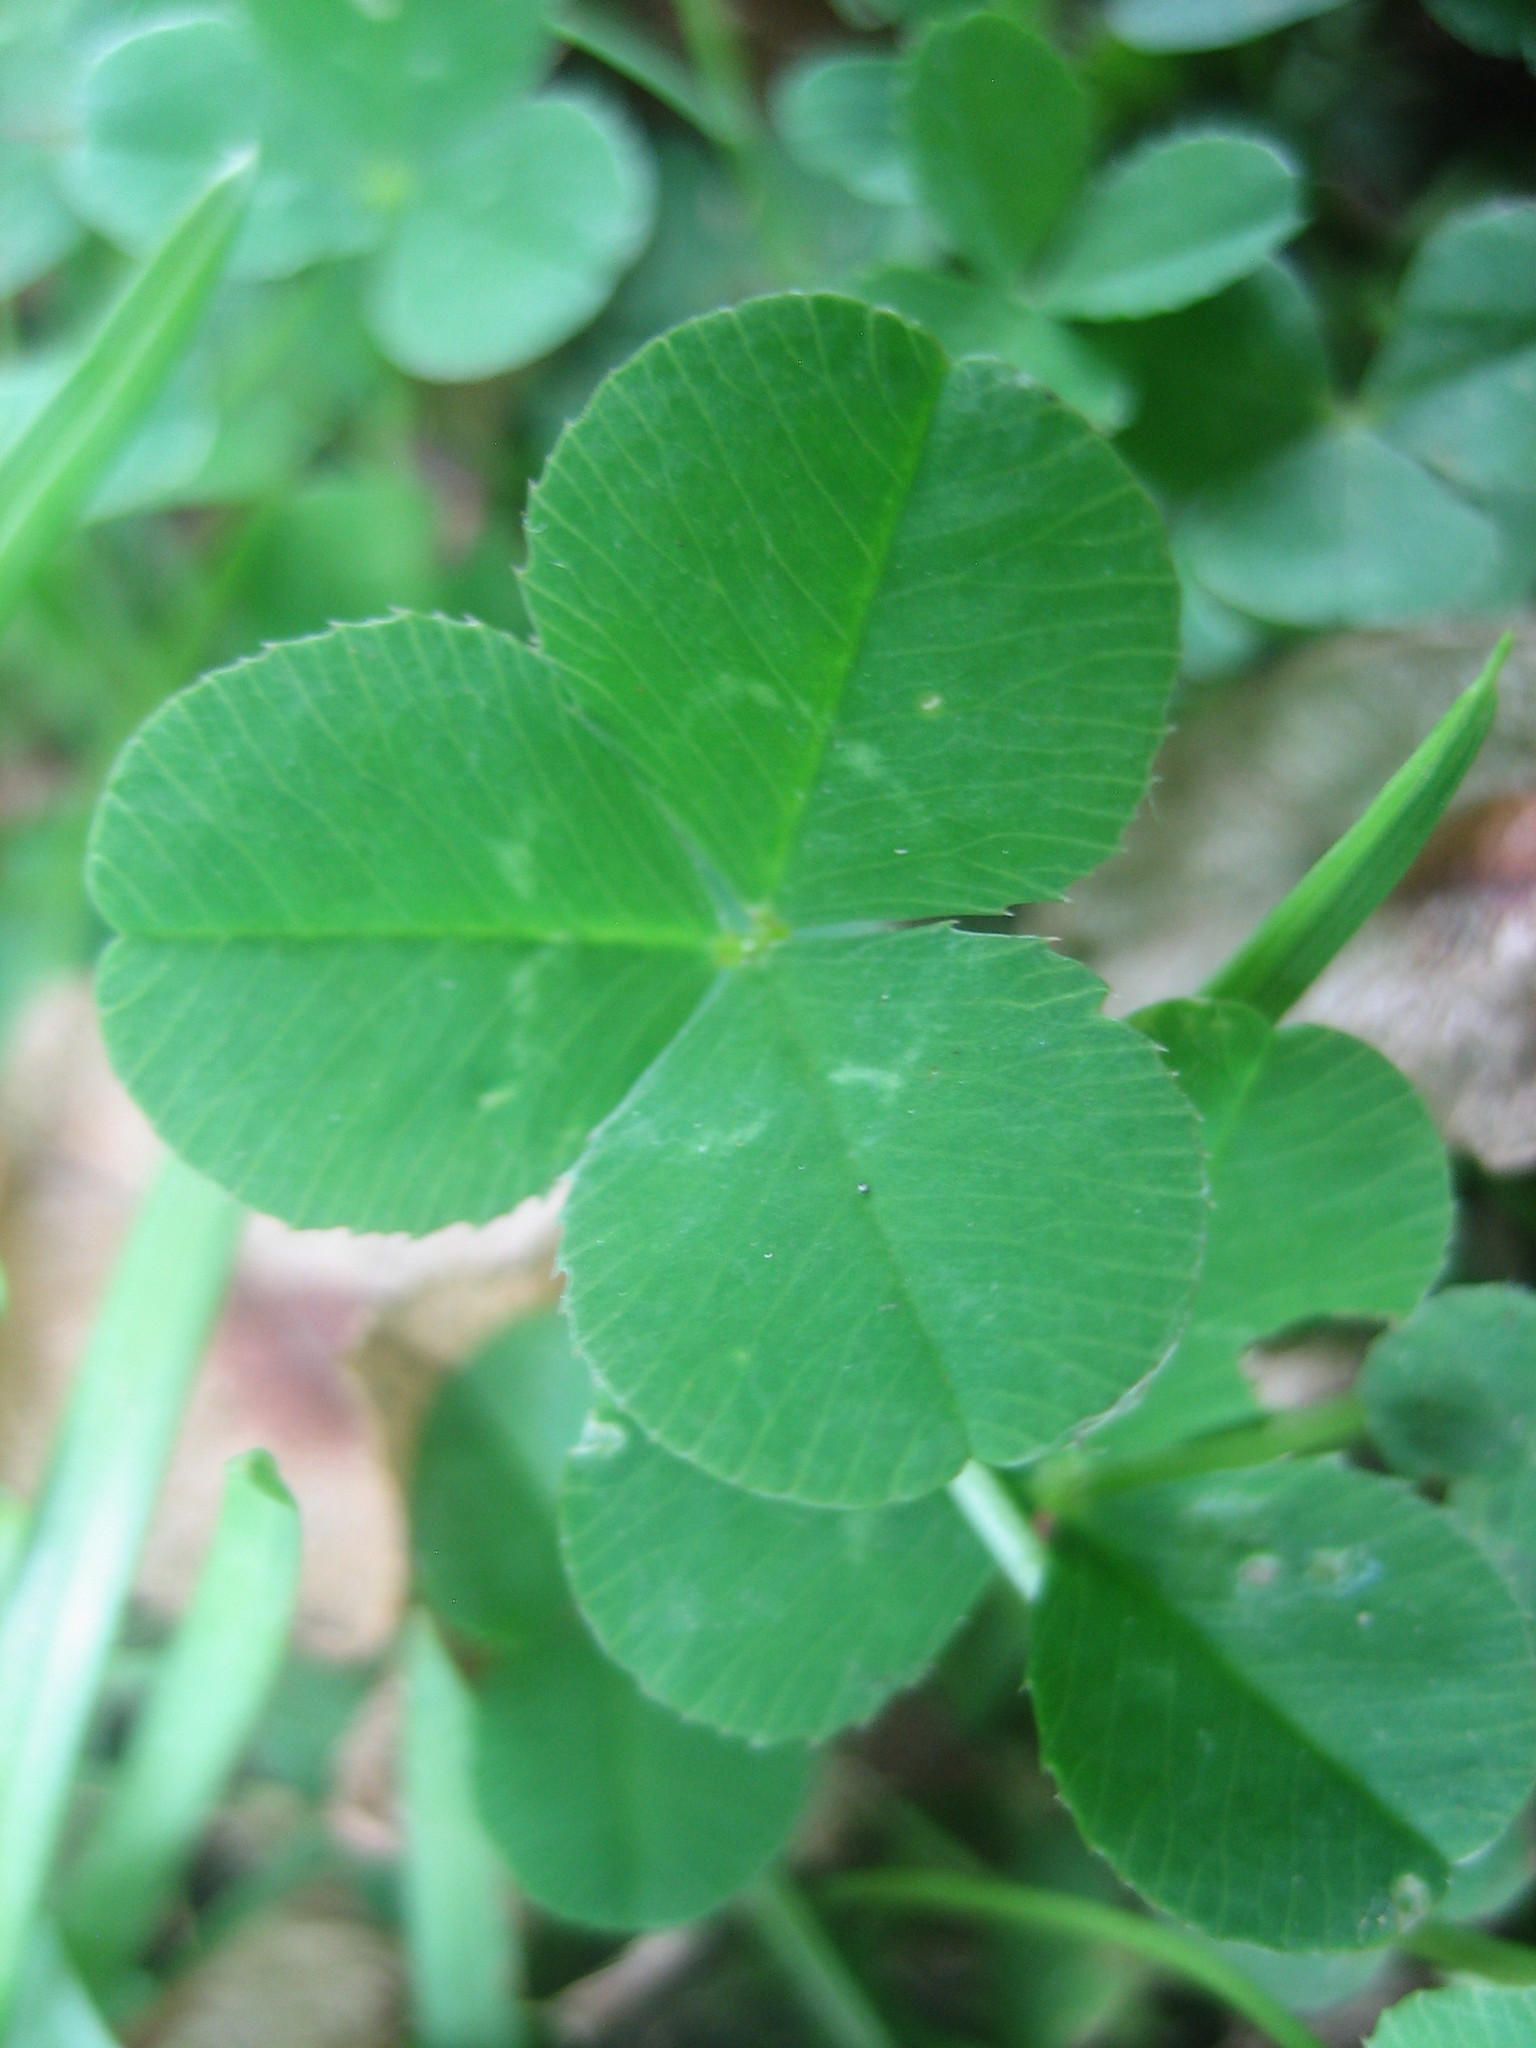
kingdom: Plantae
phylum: Tracheophyta
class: Magnoliopsida
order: Fabales
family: Fabaceae
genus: Trifolium
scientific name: Trifolium repens
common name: White clover
